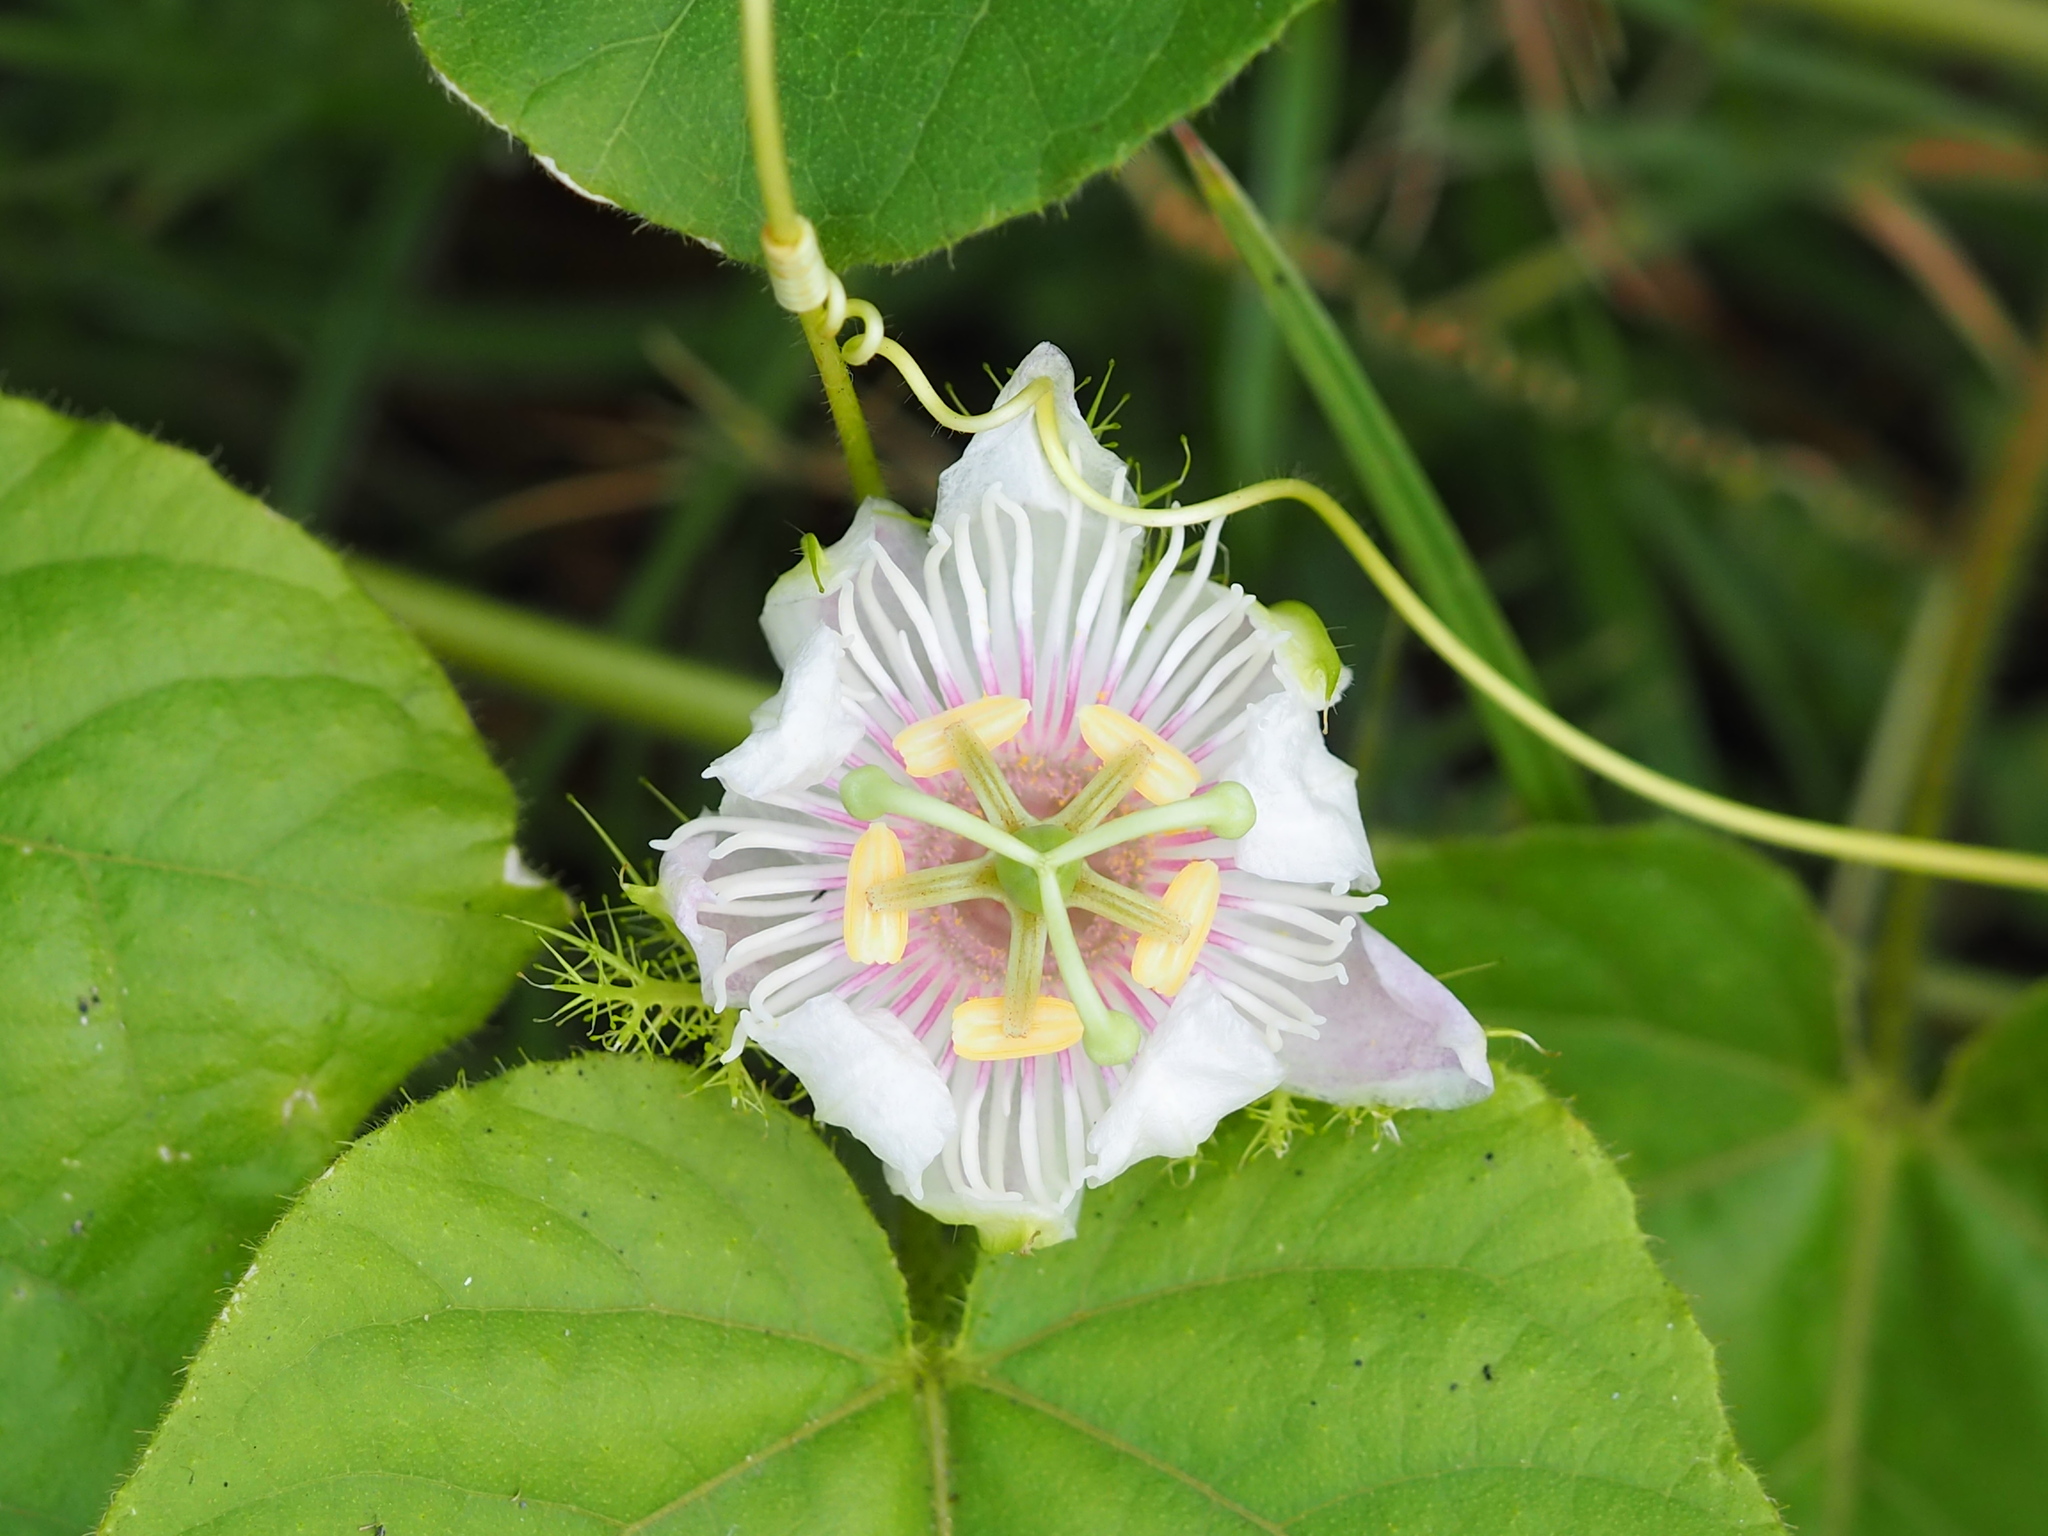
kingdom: Plantae
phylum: Tracheophyta
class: Magnoliopsida
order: Malpighiales
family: Passifloraceae
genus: Passiflora
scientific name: Passiflora vesicaria
